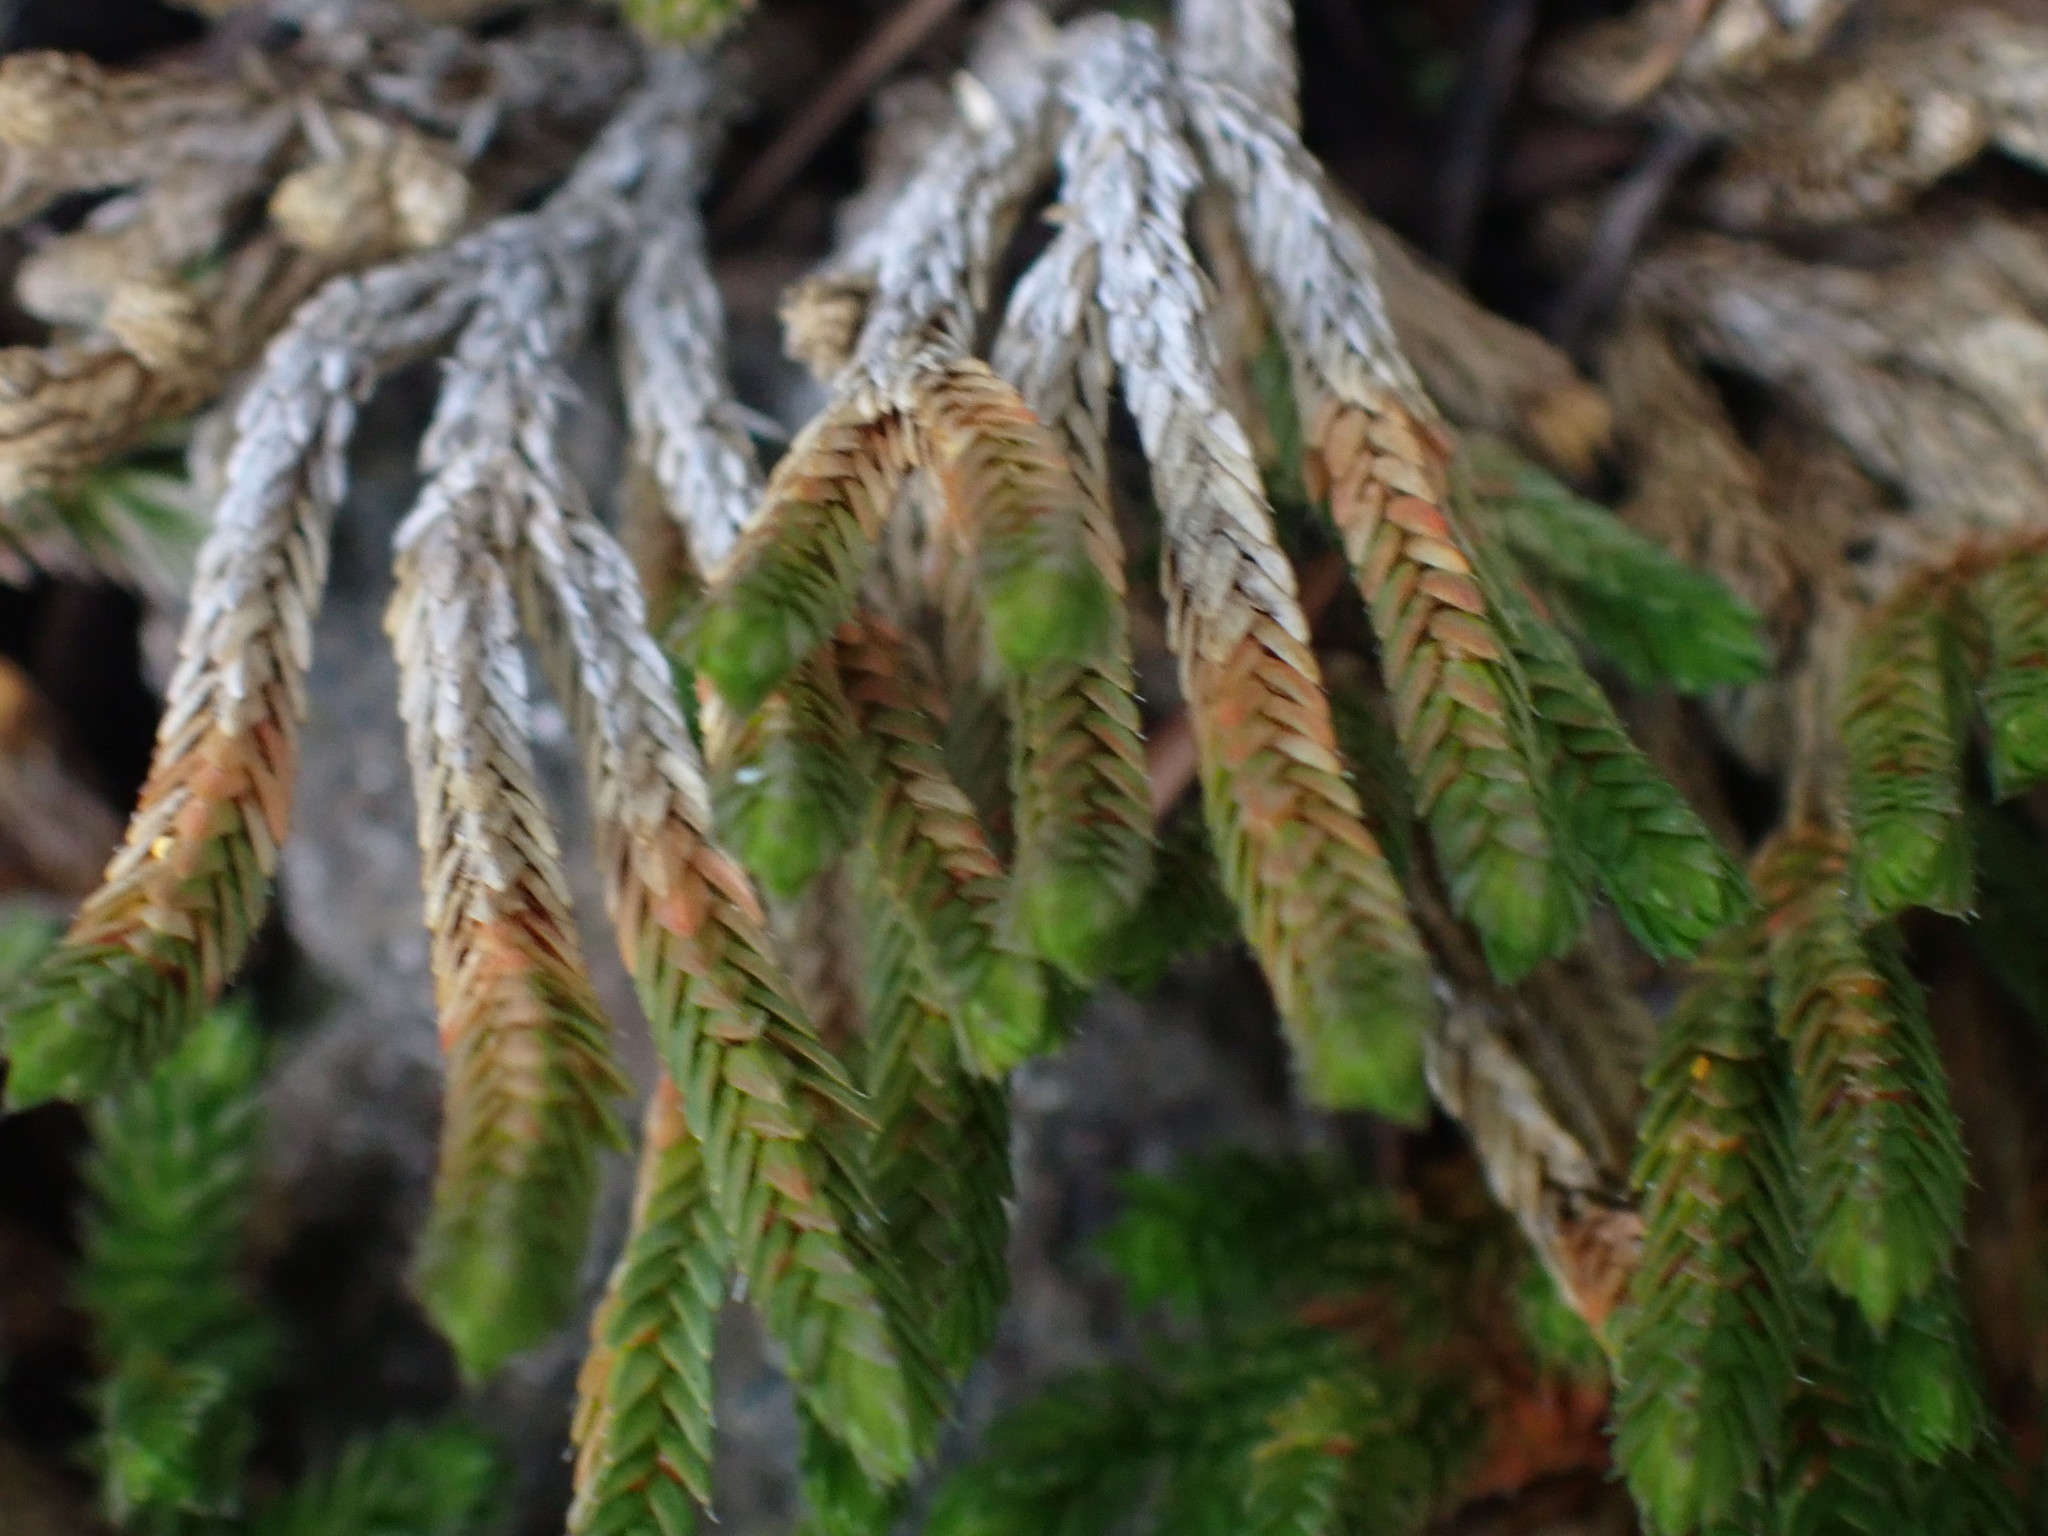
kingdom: Plantae
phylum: Tracheophyta
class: Lycopodiopsida
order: Selaginellales
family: Selaginellaceae
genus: Selaginella
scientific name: Selaginella wallacei
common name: Wallace's selaginella
